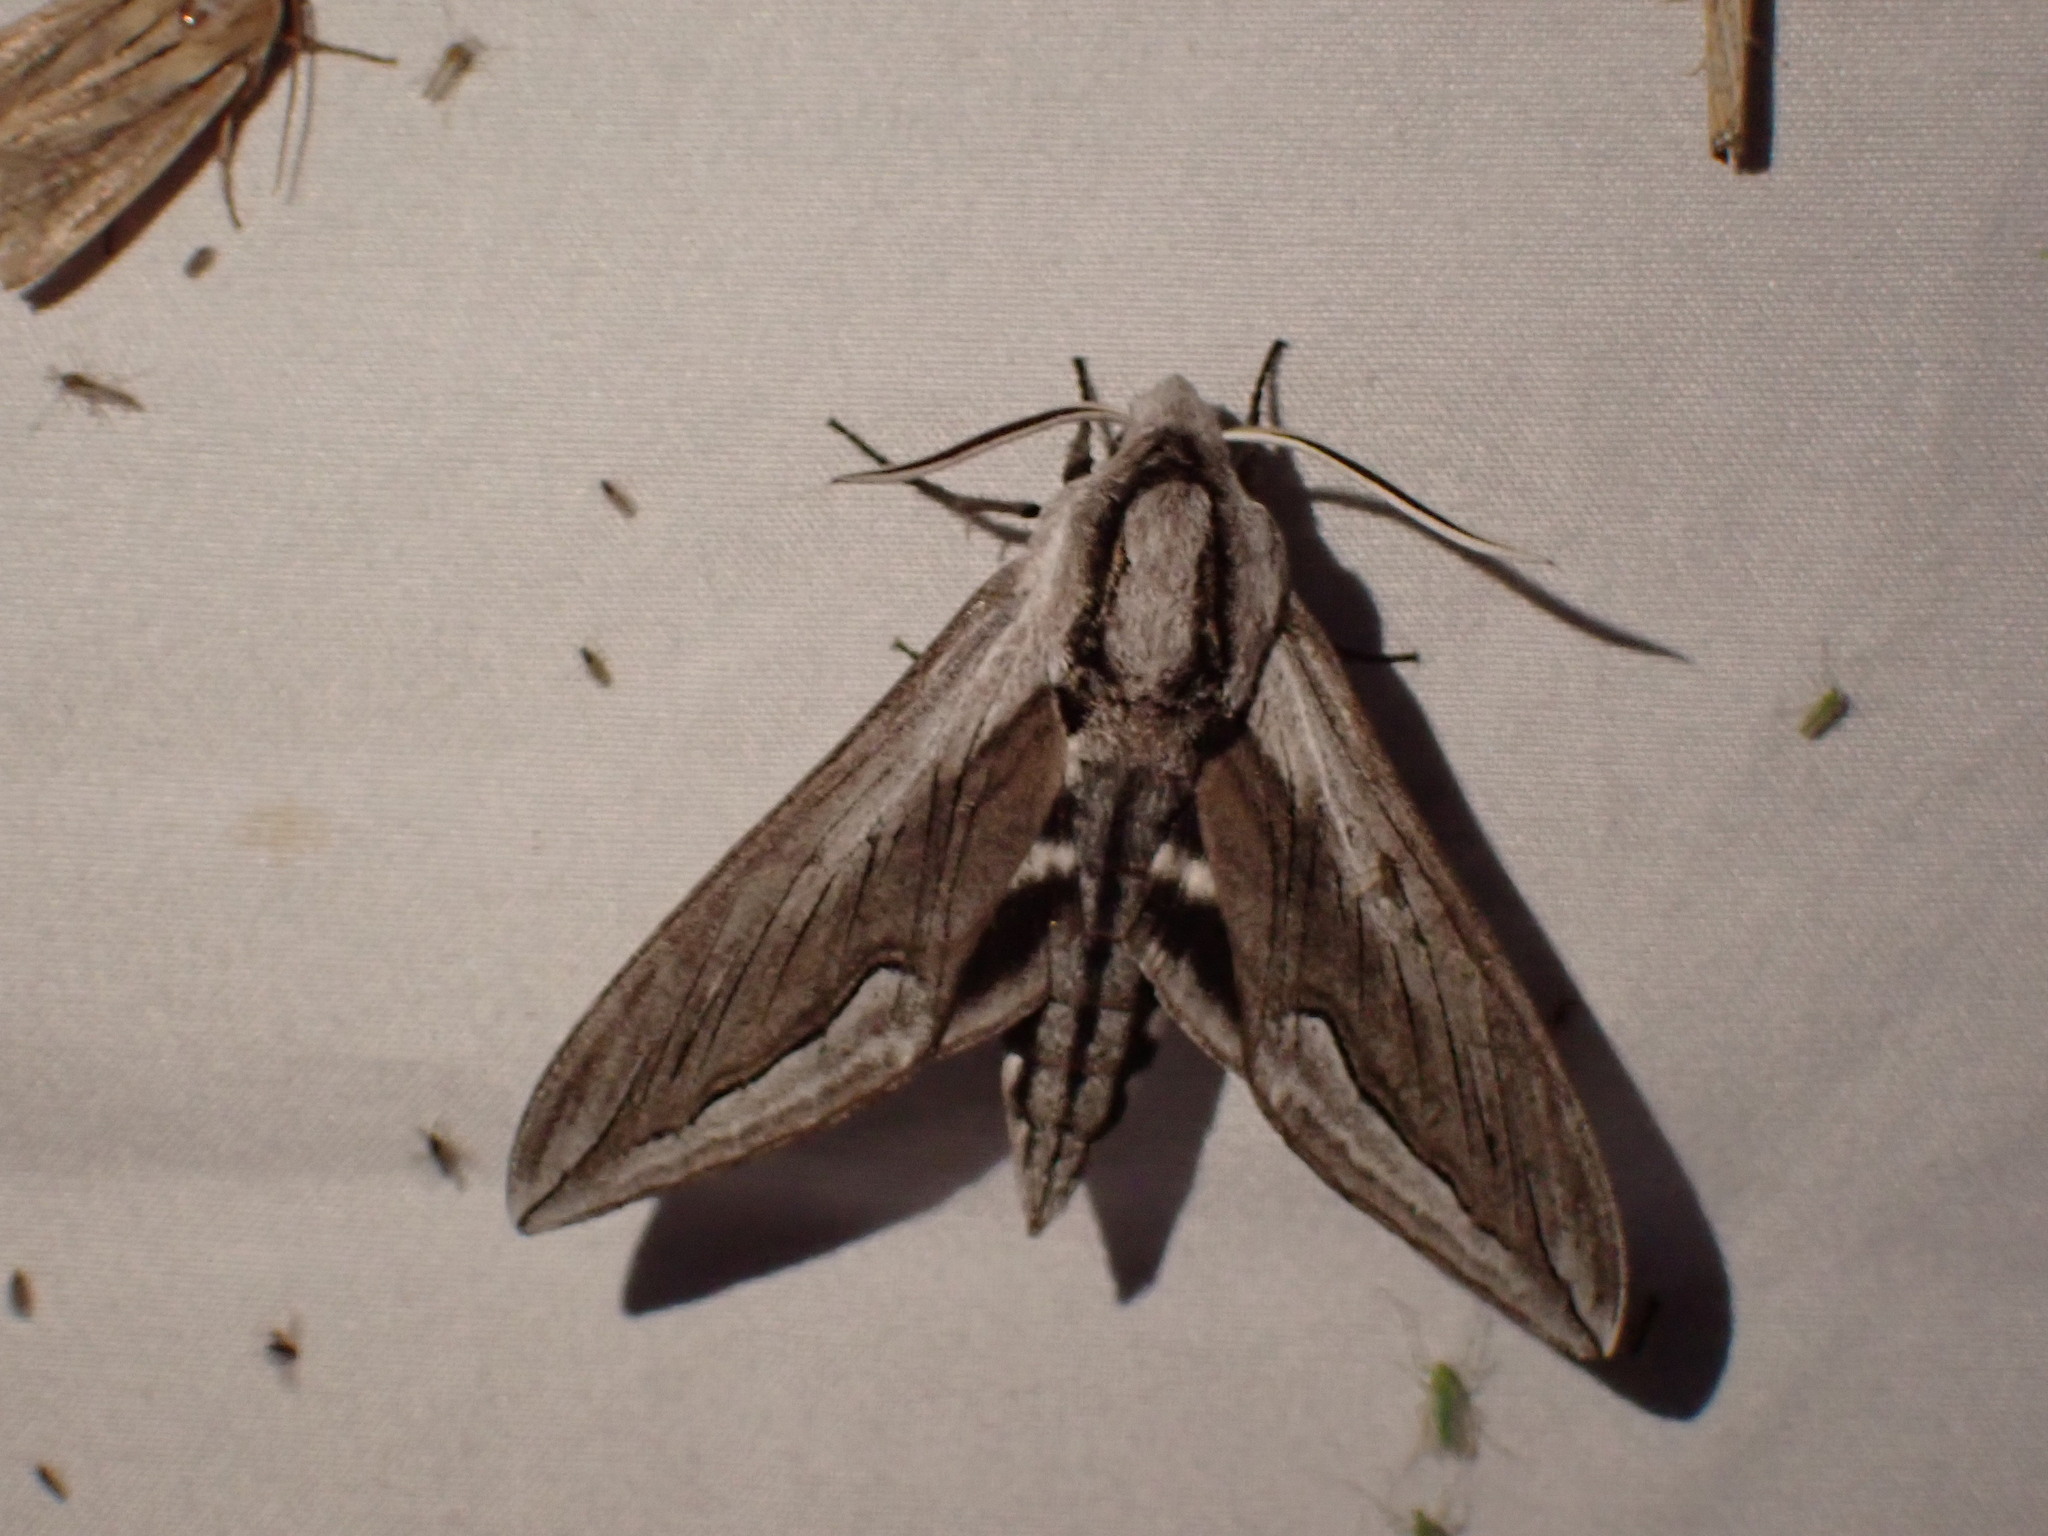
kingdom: Animalia
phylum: Arthropoda
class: Insecta
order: Lepidoptera
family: Sphingidae
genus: Sphinx
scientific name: Sphinx vashti
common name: Snowberry sphinx
